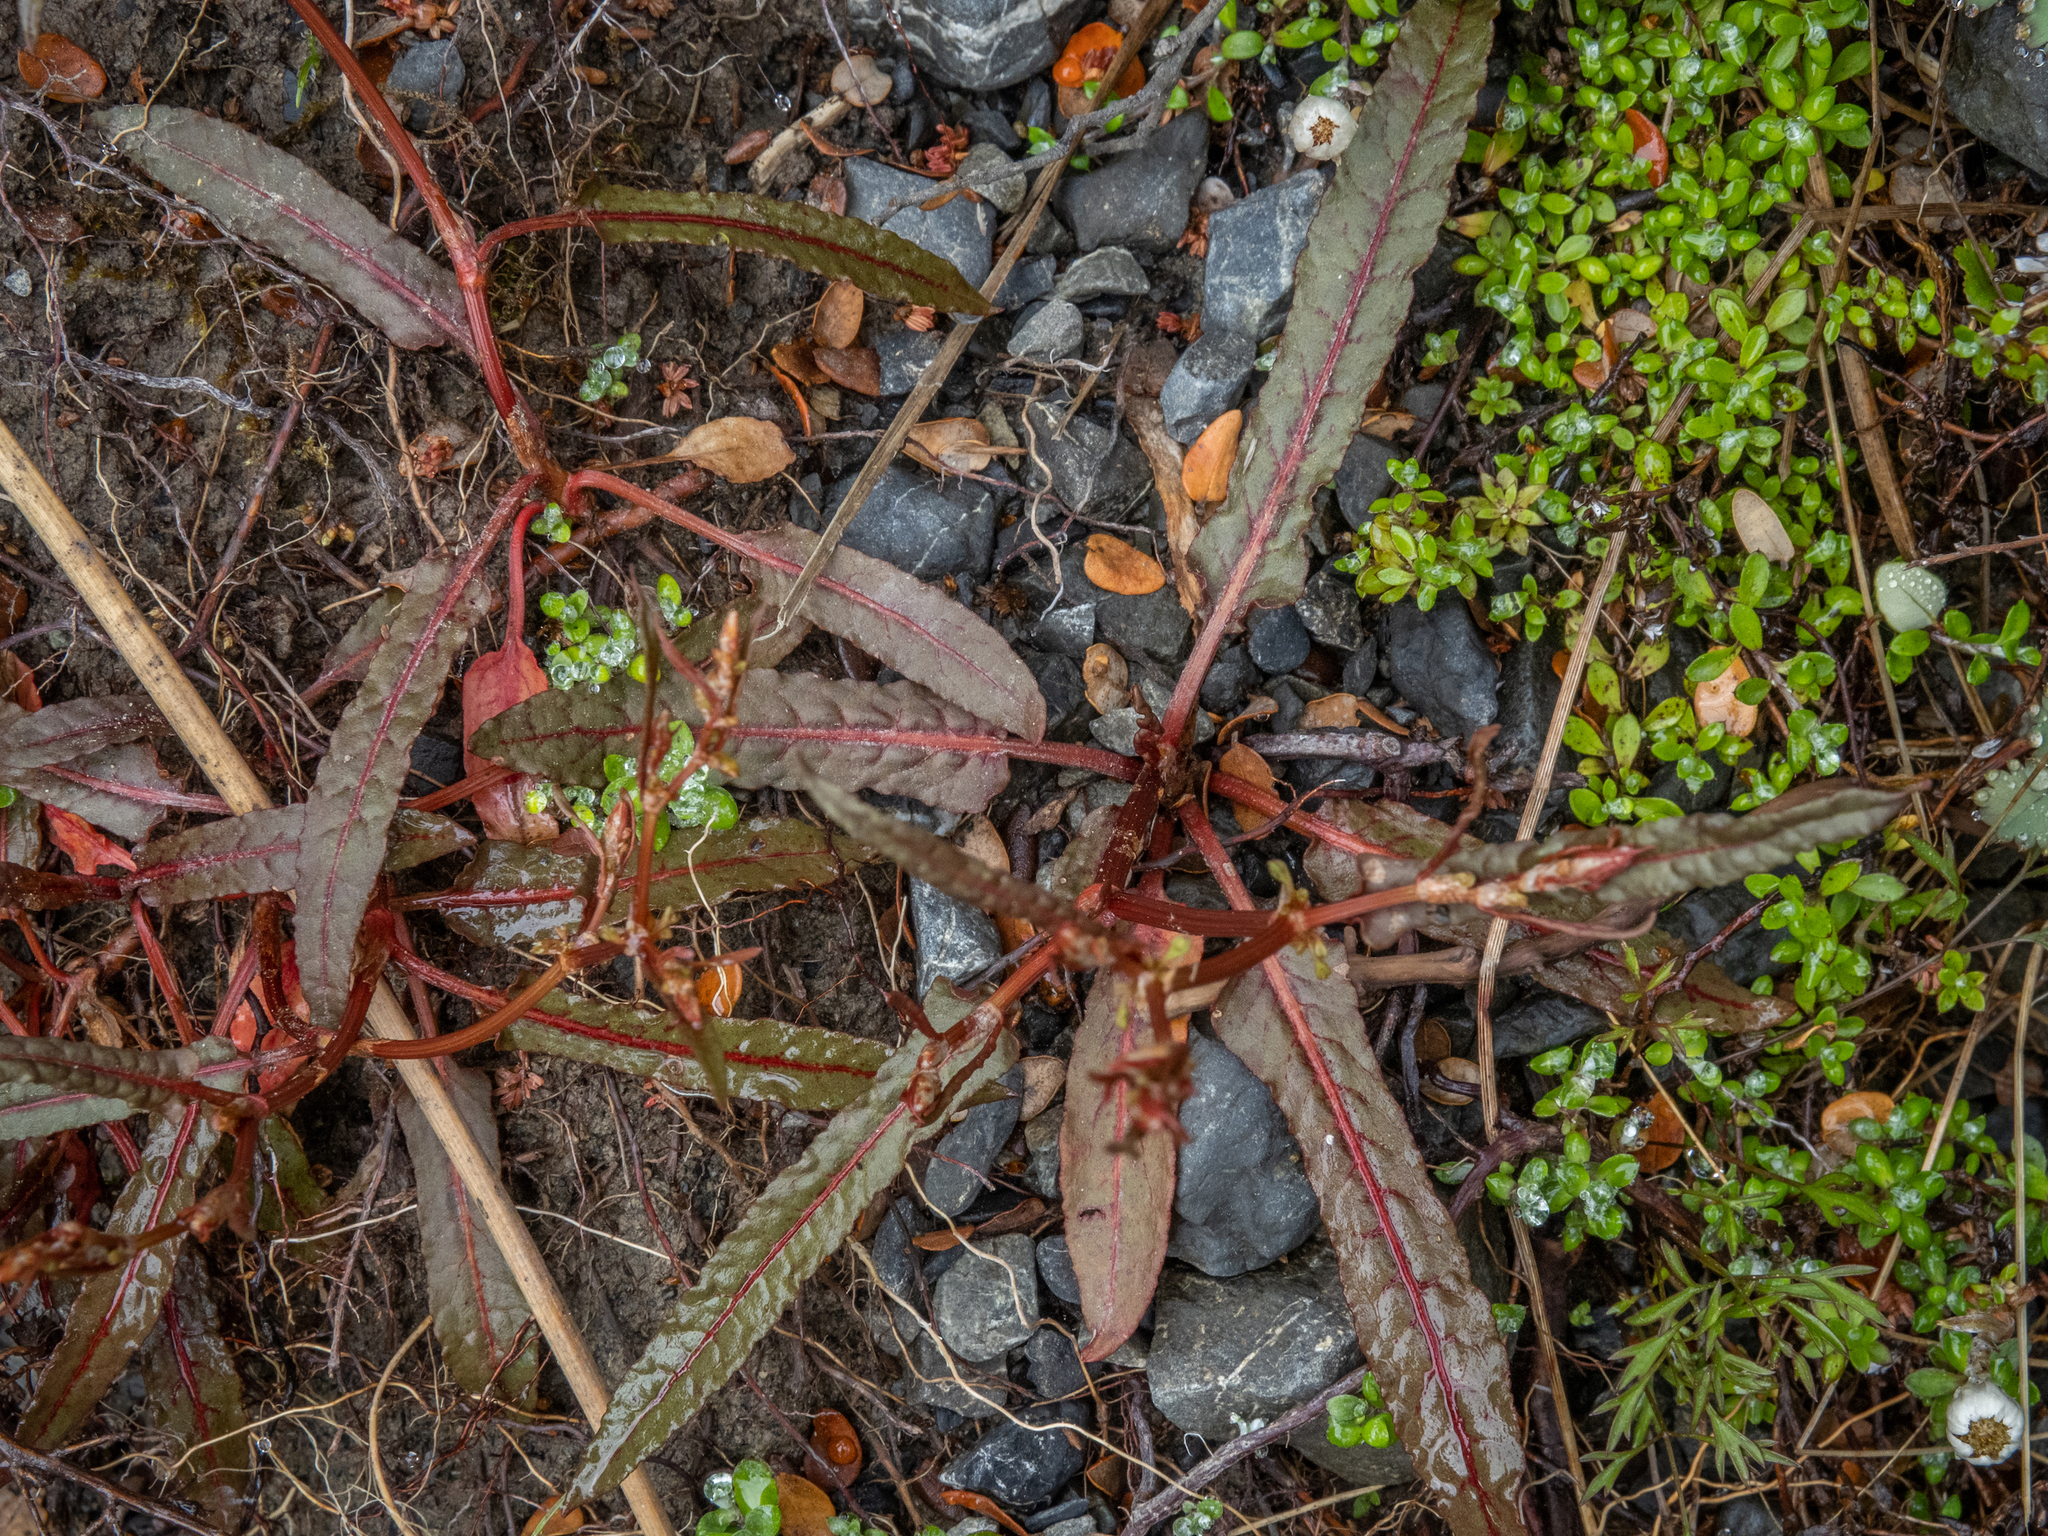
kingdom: Plantae
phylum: Tracheophyta
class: Magnoliopsida
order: Caryophyllales
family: Polygonaceae
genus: Rumex
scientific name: Rumex flexuosus
